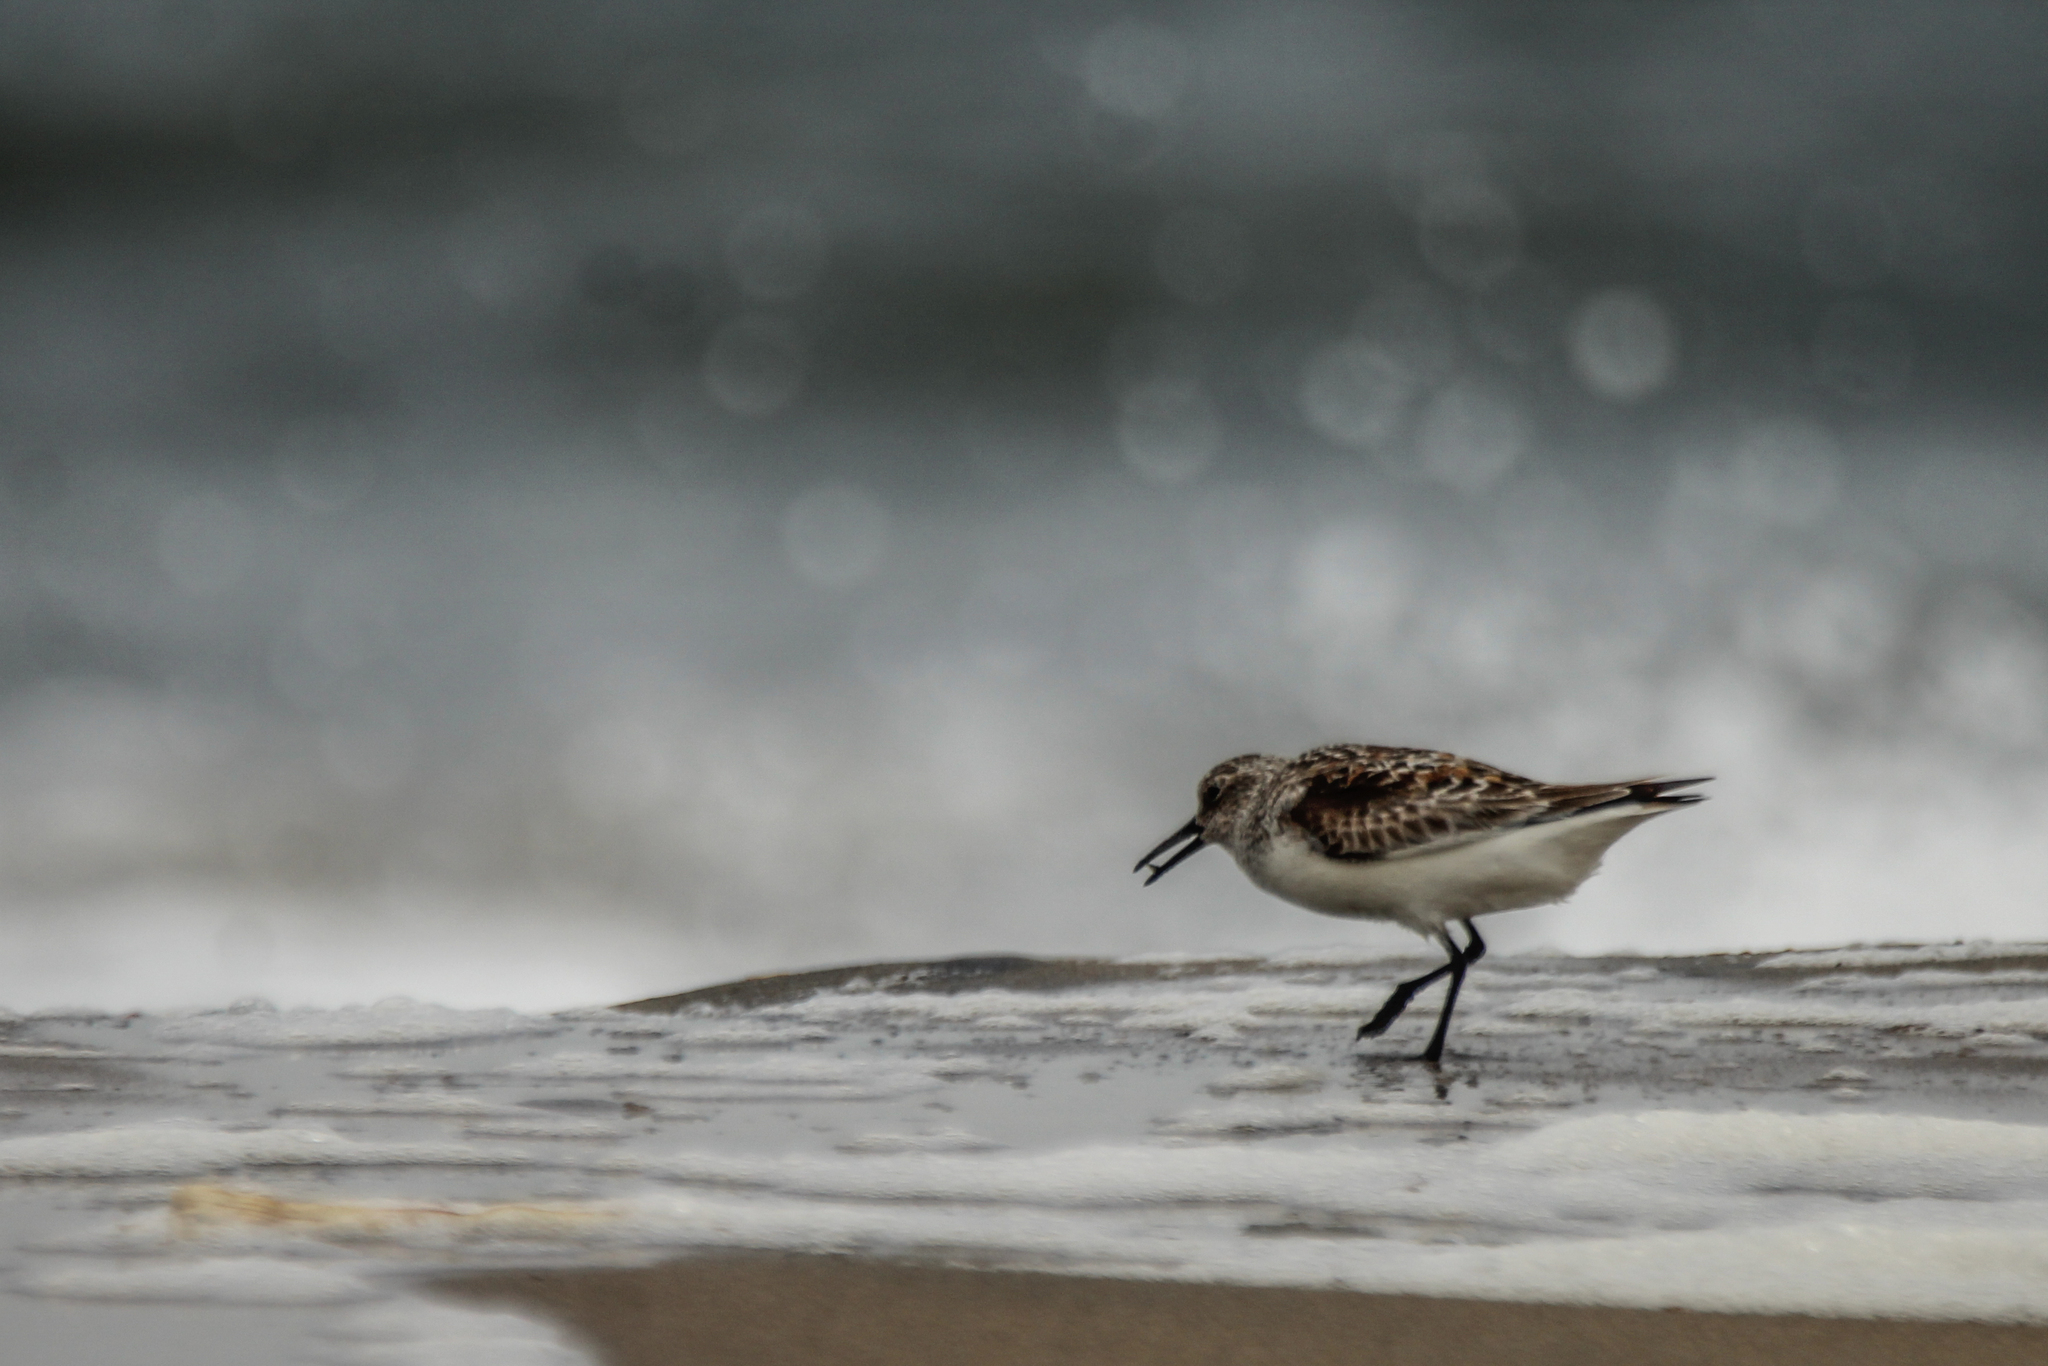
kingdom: Animalia
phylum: Chordata
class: Aves
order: Charadriiformes
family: Scolopacidae
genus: Calidris
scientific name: Calidris alba
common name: Sanderling
